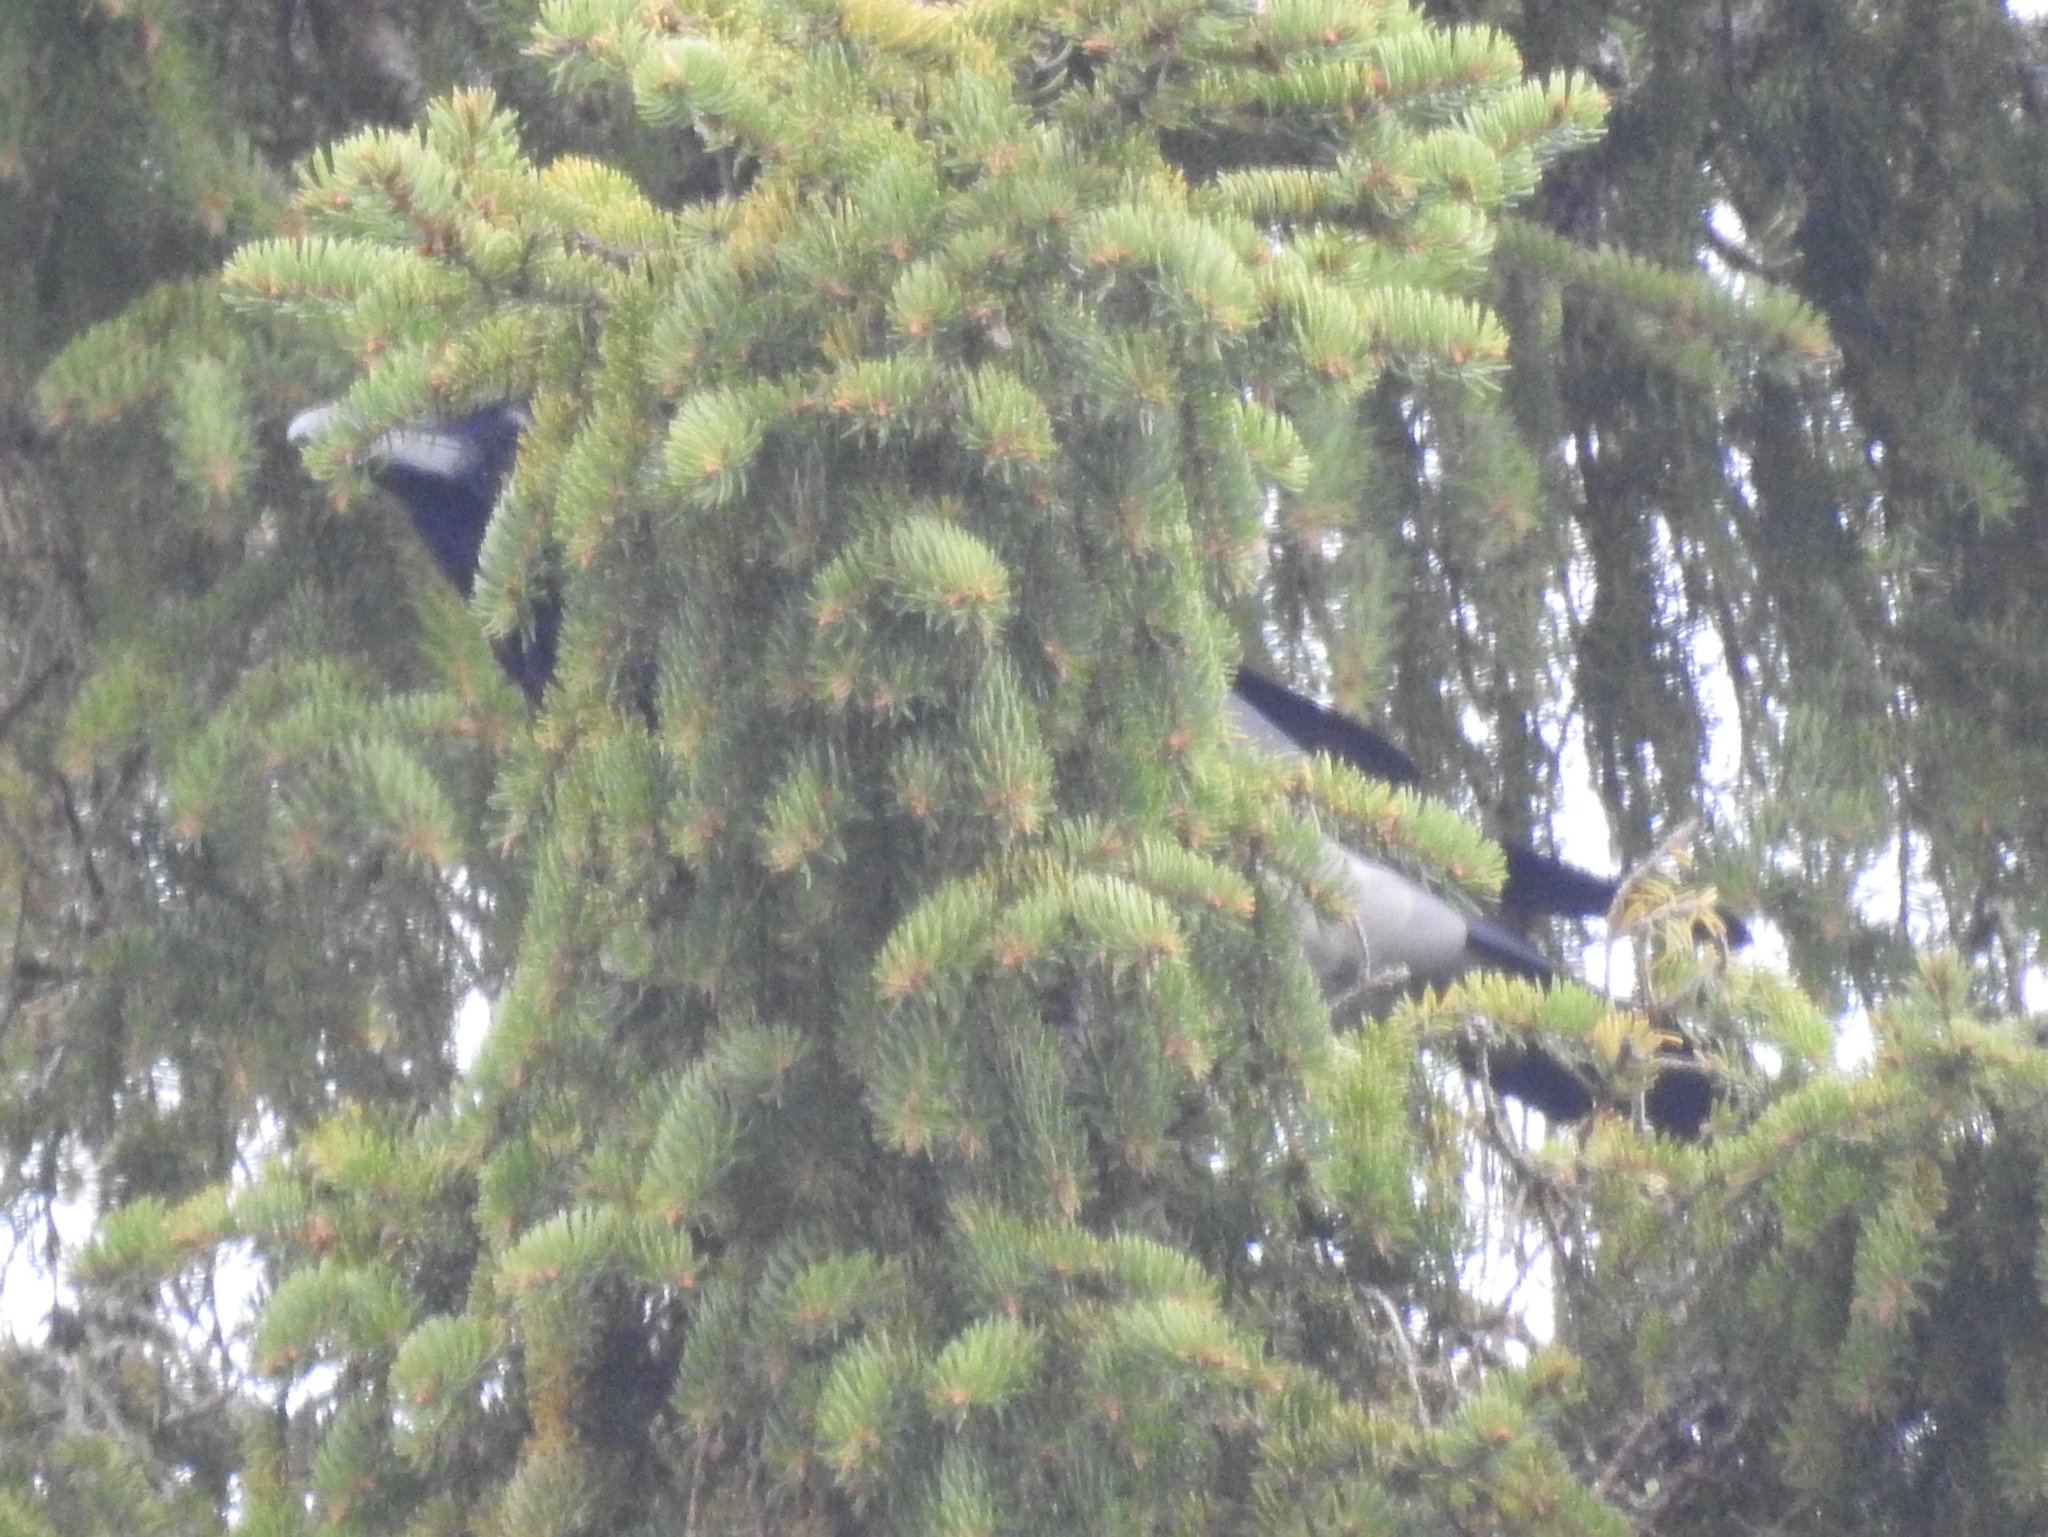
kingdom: Animalia
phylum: Chordata
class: Aves
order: Passeriformes
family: Corvidae
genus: Corvus
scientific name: Corvus cornix
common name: Hooded crow
